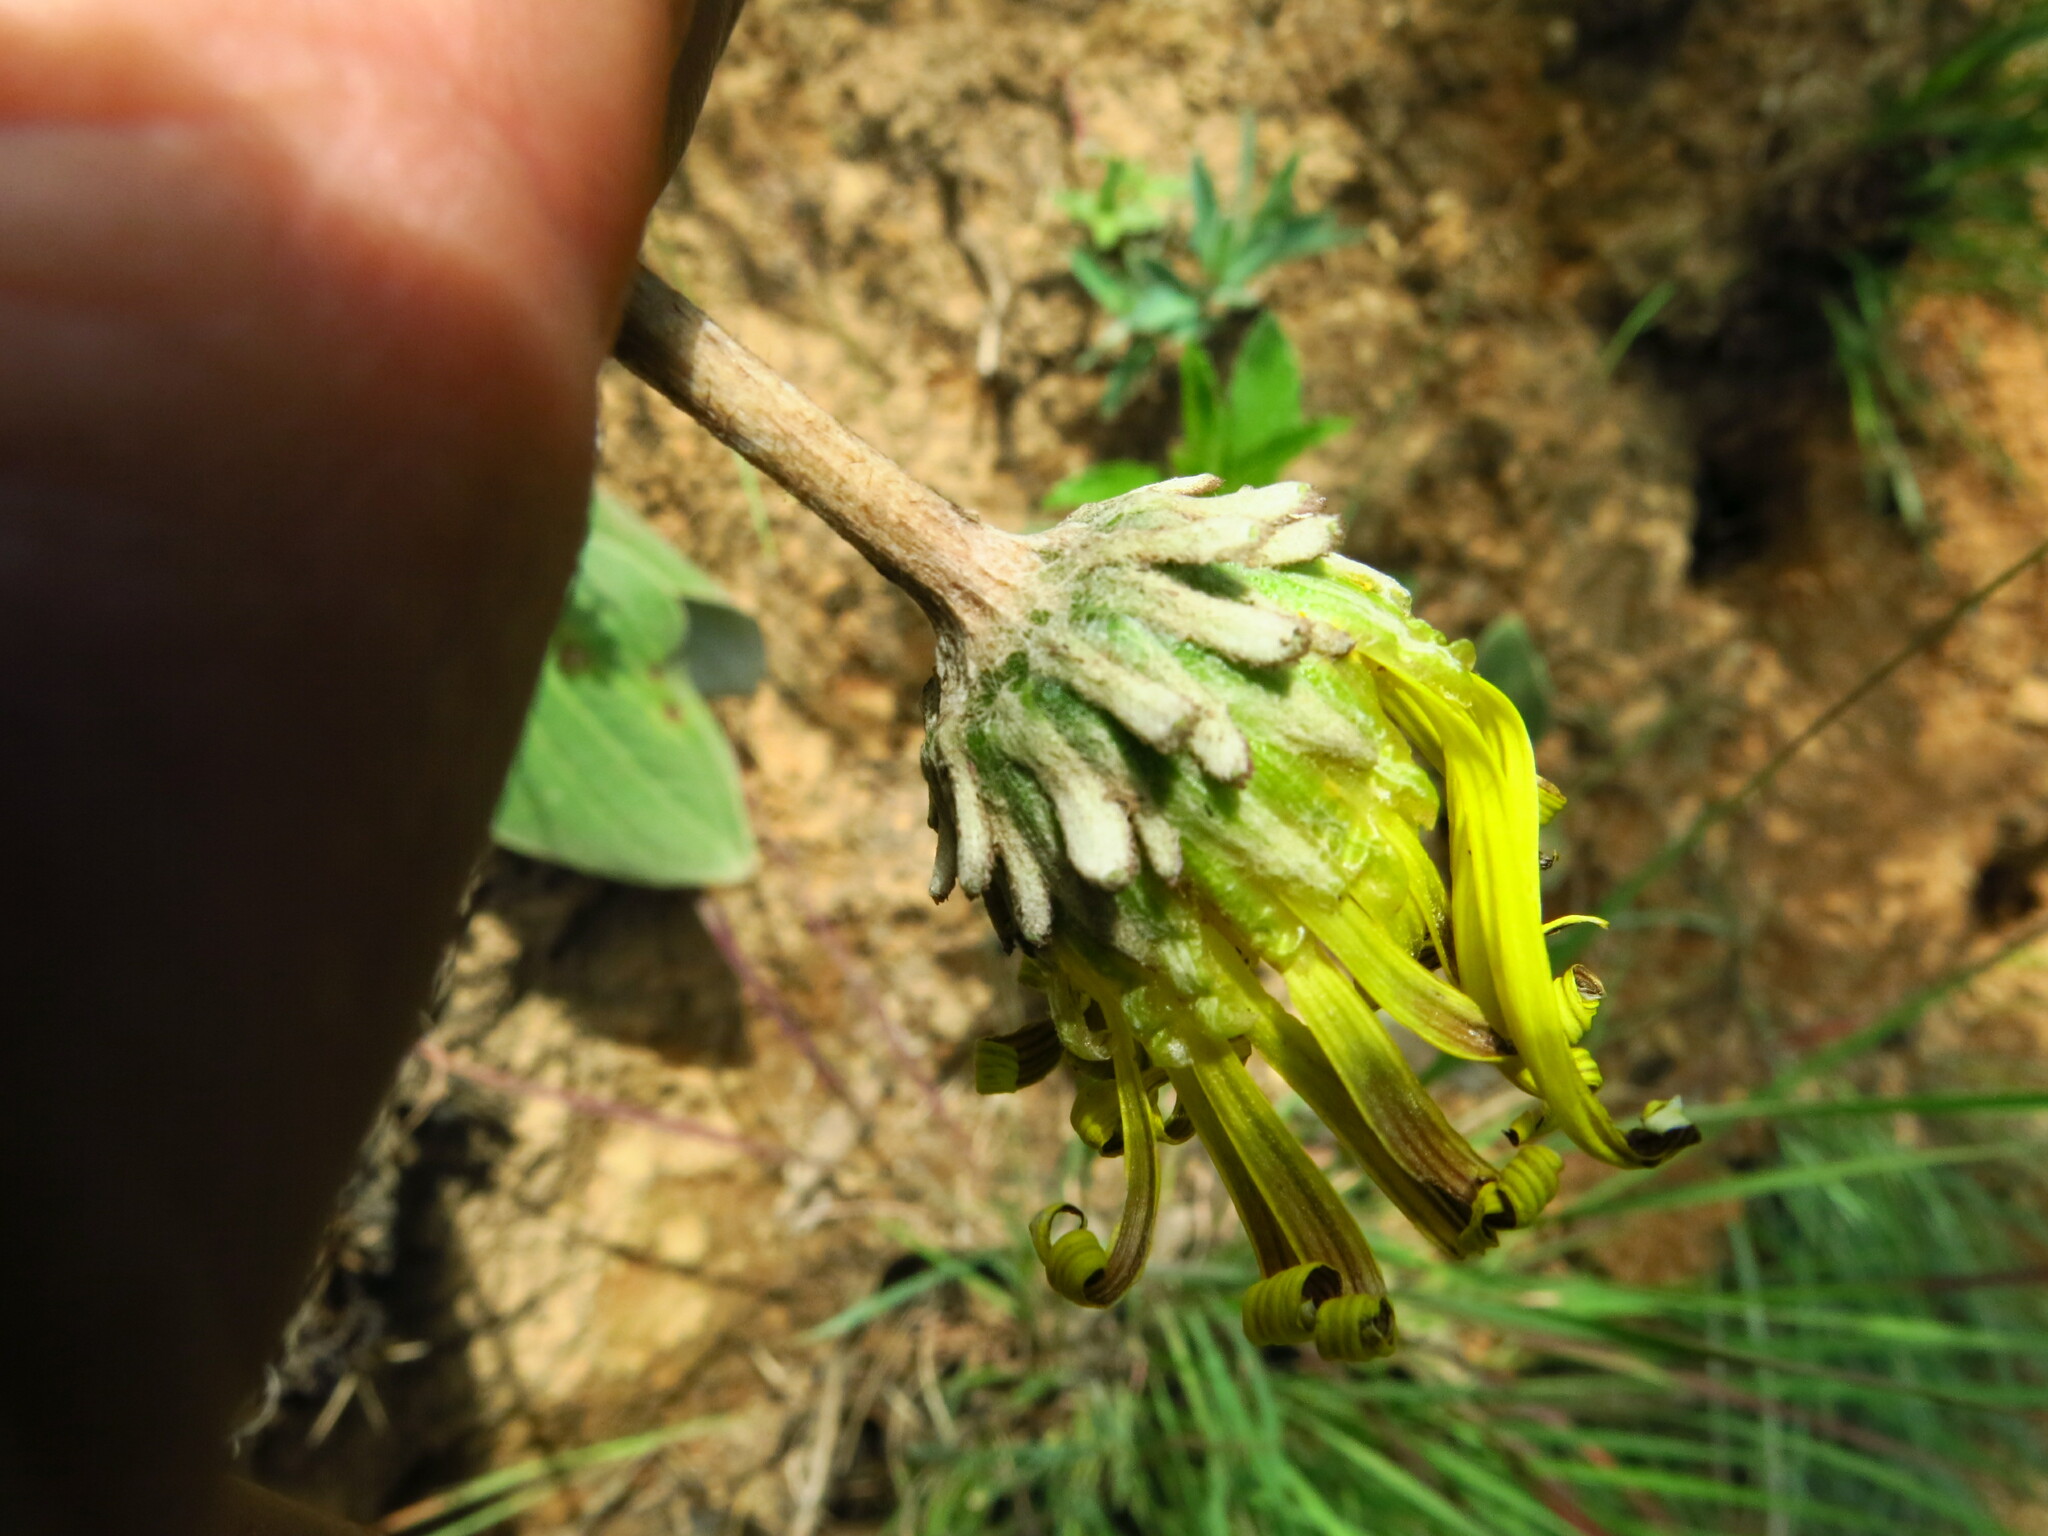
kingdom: Plantae
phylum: Tracheophyta
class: Magnoliopsida
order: Asterales
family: Asteraceae
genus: Haplocarpha
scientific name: Haplocarpha scaposa
